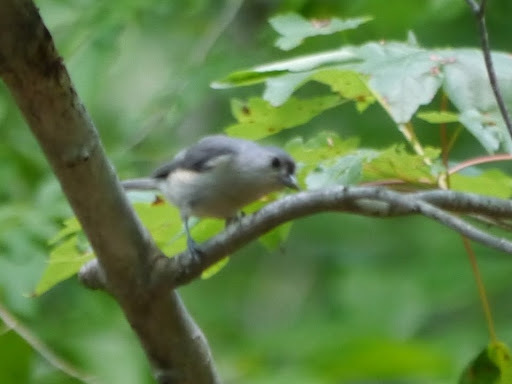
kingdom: Animalia
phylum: Chordata
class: Aves
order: Passeriformes
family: Paridae
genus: Baeolophus
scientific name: Baeolophus bicolor
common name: Tufted titmouse
